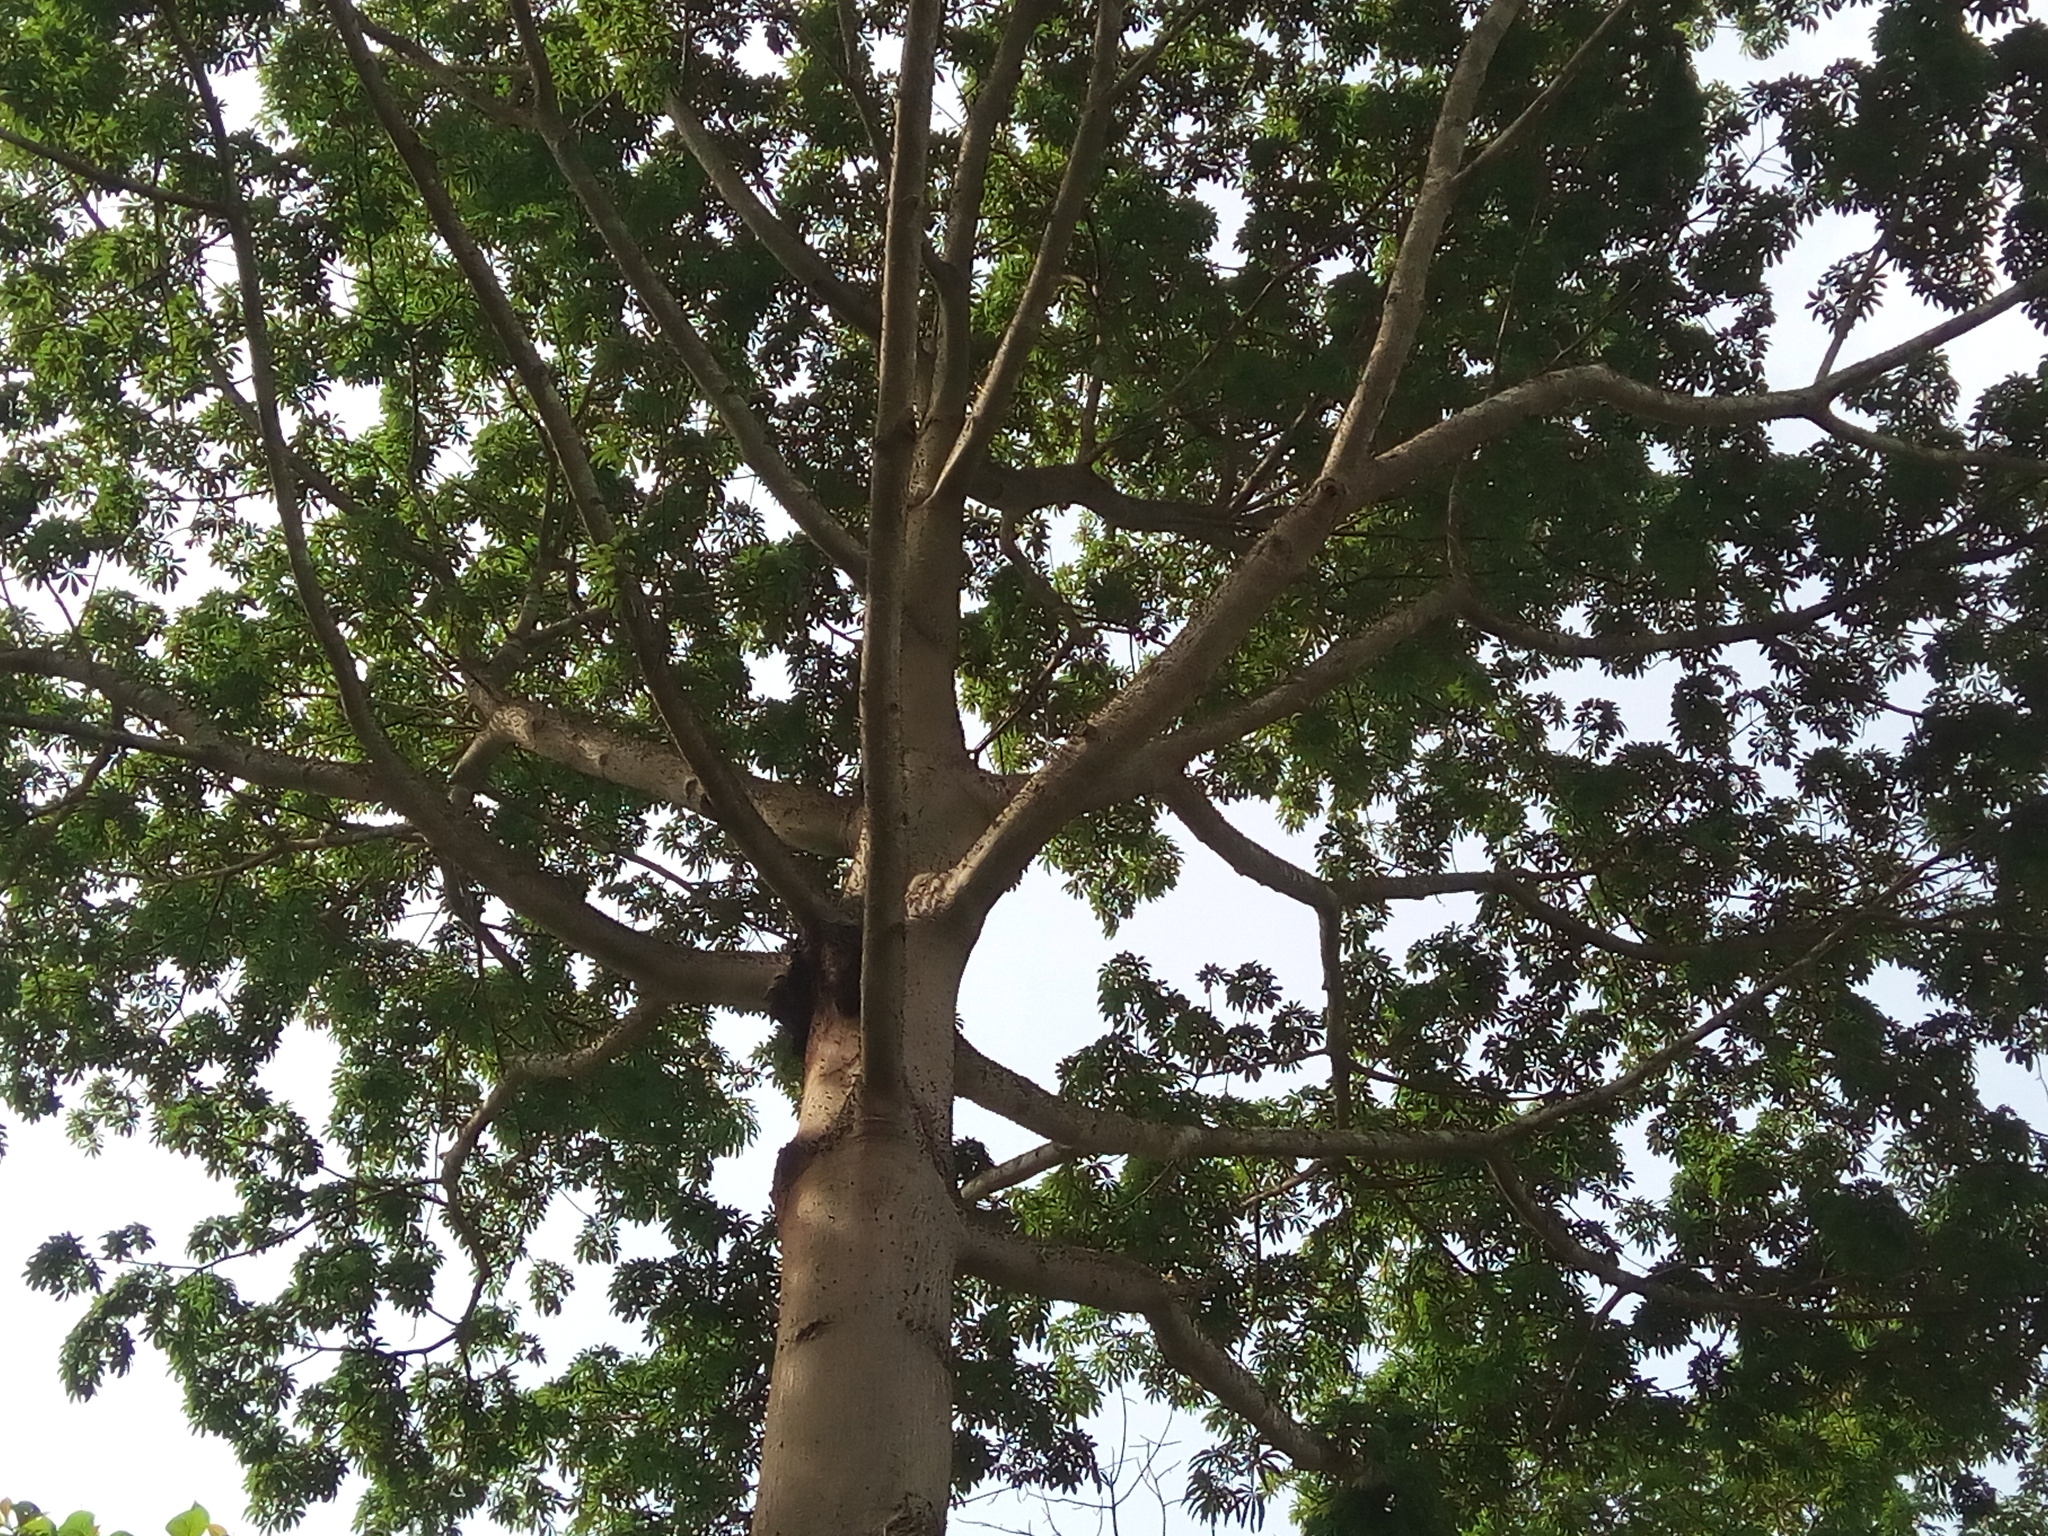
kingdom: Plantae
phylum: Tracheophyta
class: Magnoliopsida
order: Malvales
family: Malvaceae
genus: Ceiba
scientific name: Ceiba pentandra
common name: Kapok
